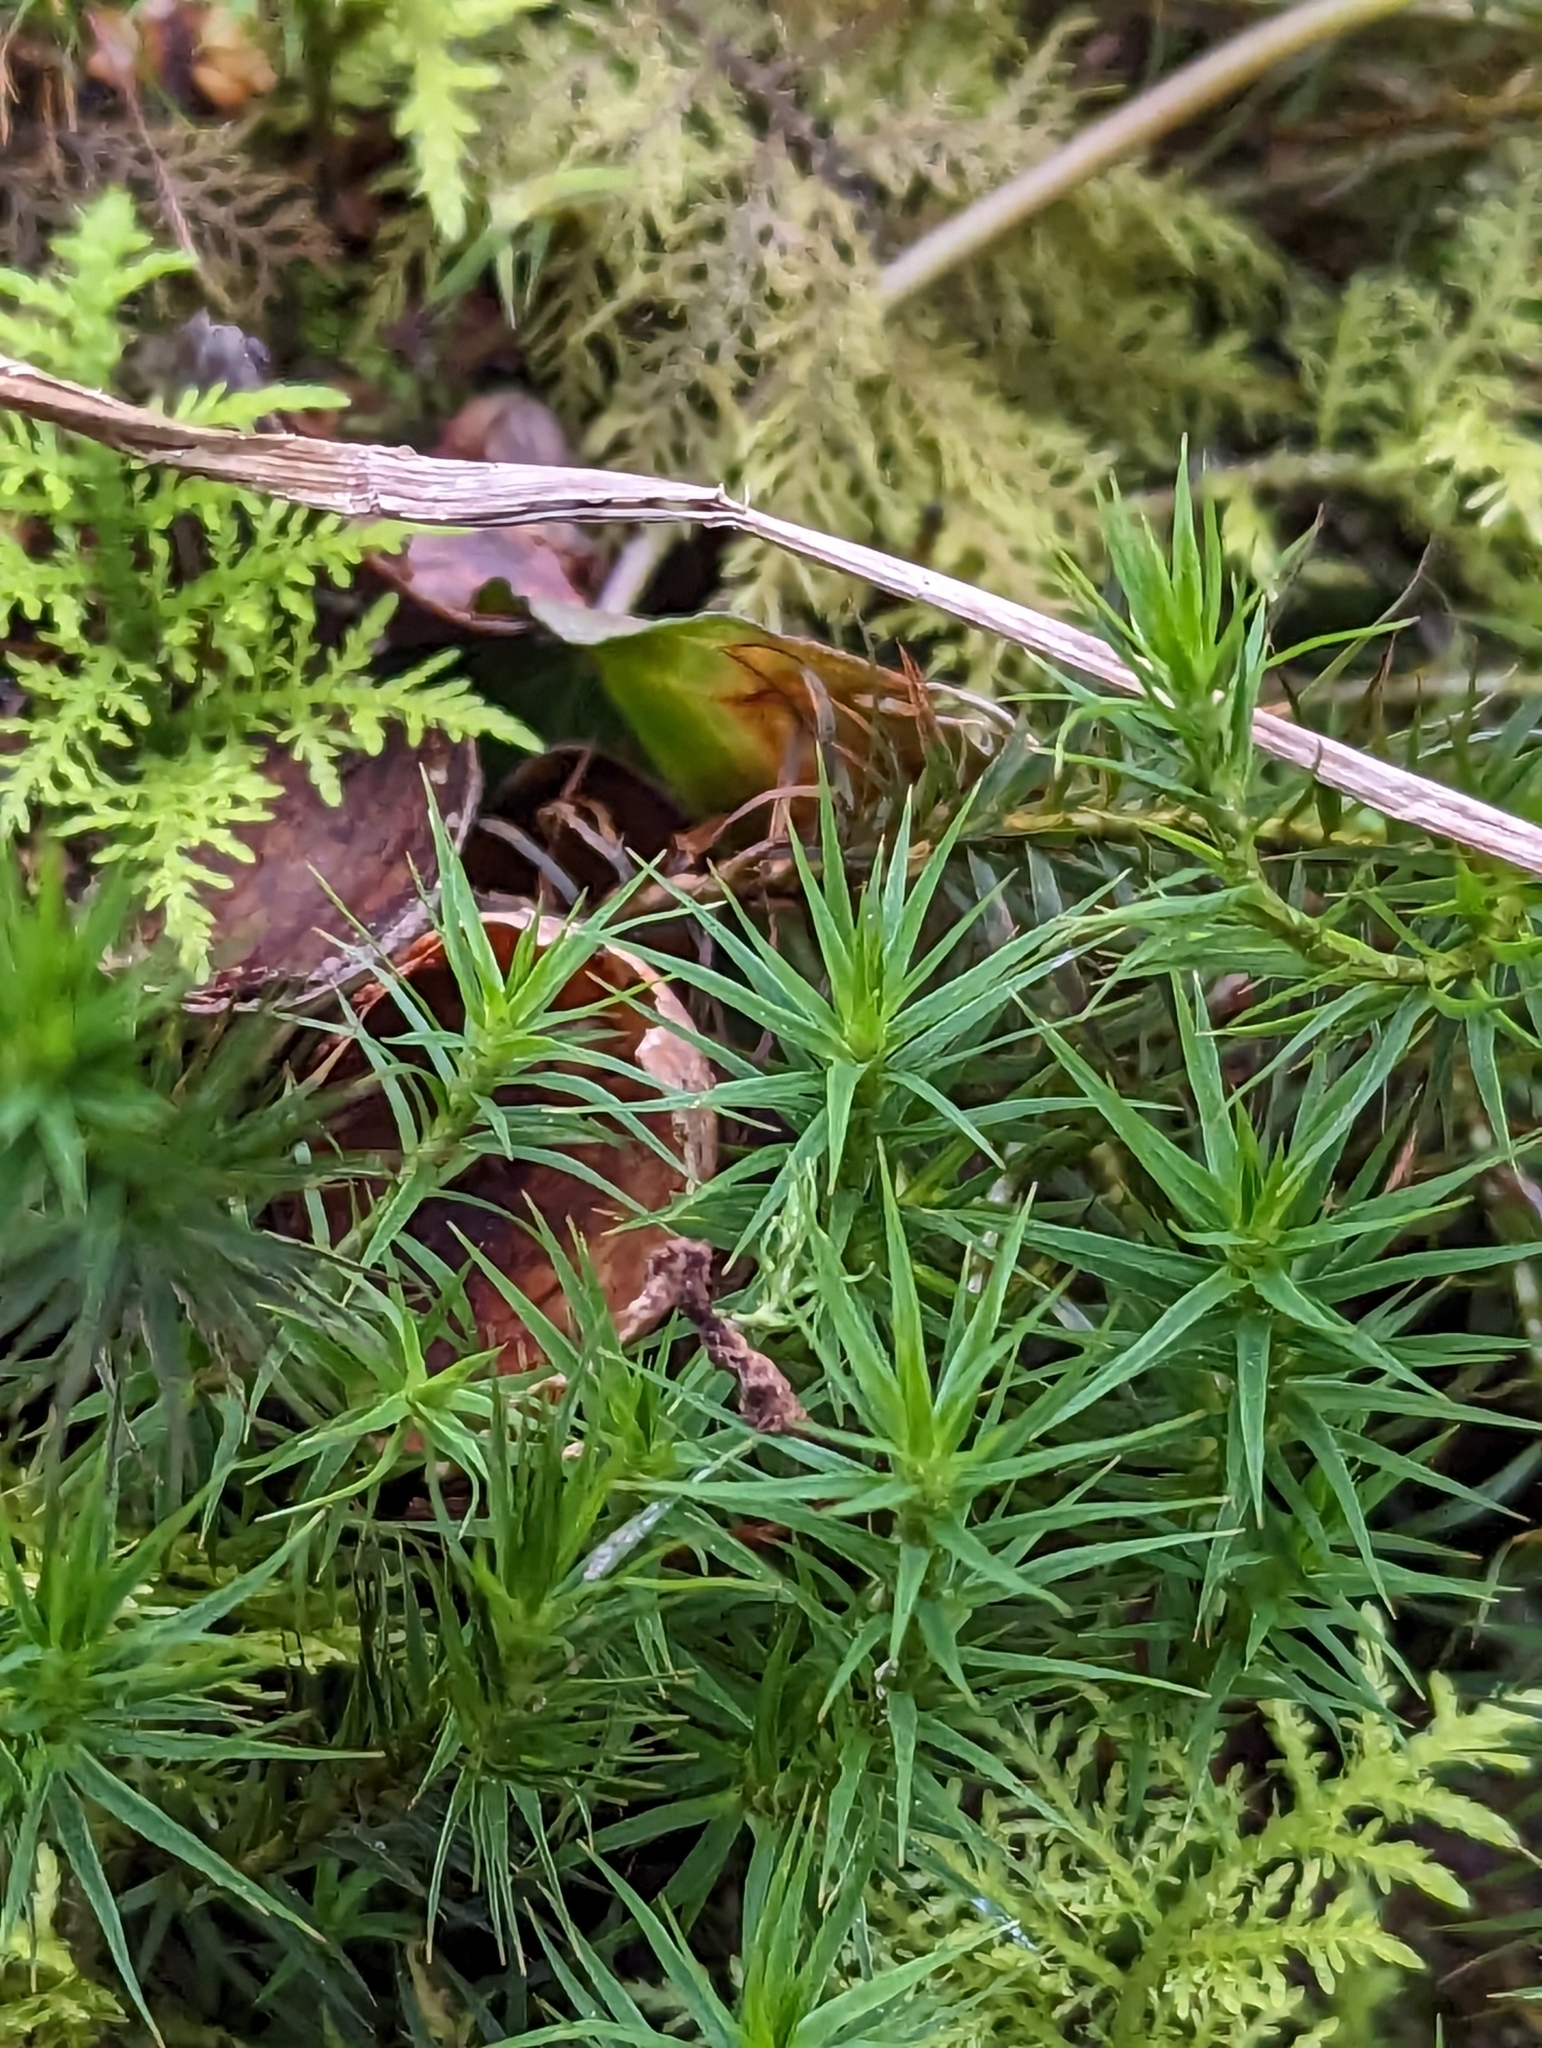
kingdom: Plantae
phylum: Bryophyta
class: Polytrichopsida
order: Polytrichales
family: Polytrichaceae
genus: Polytrichum
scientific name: Polytrichum formosum
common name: Bank haircap moss
